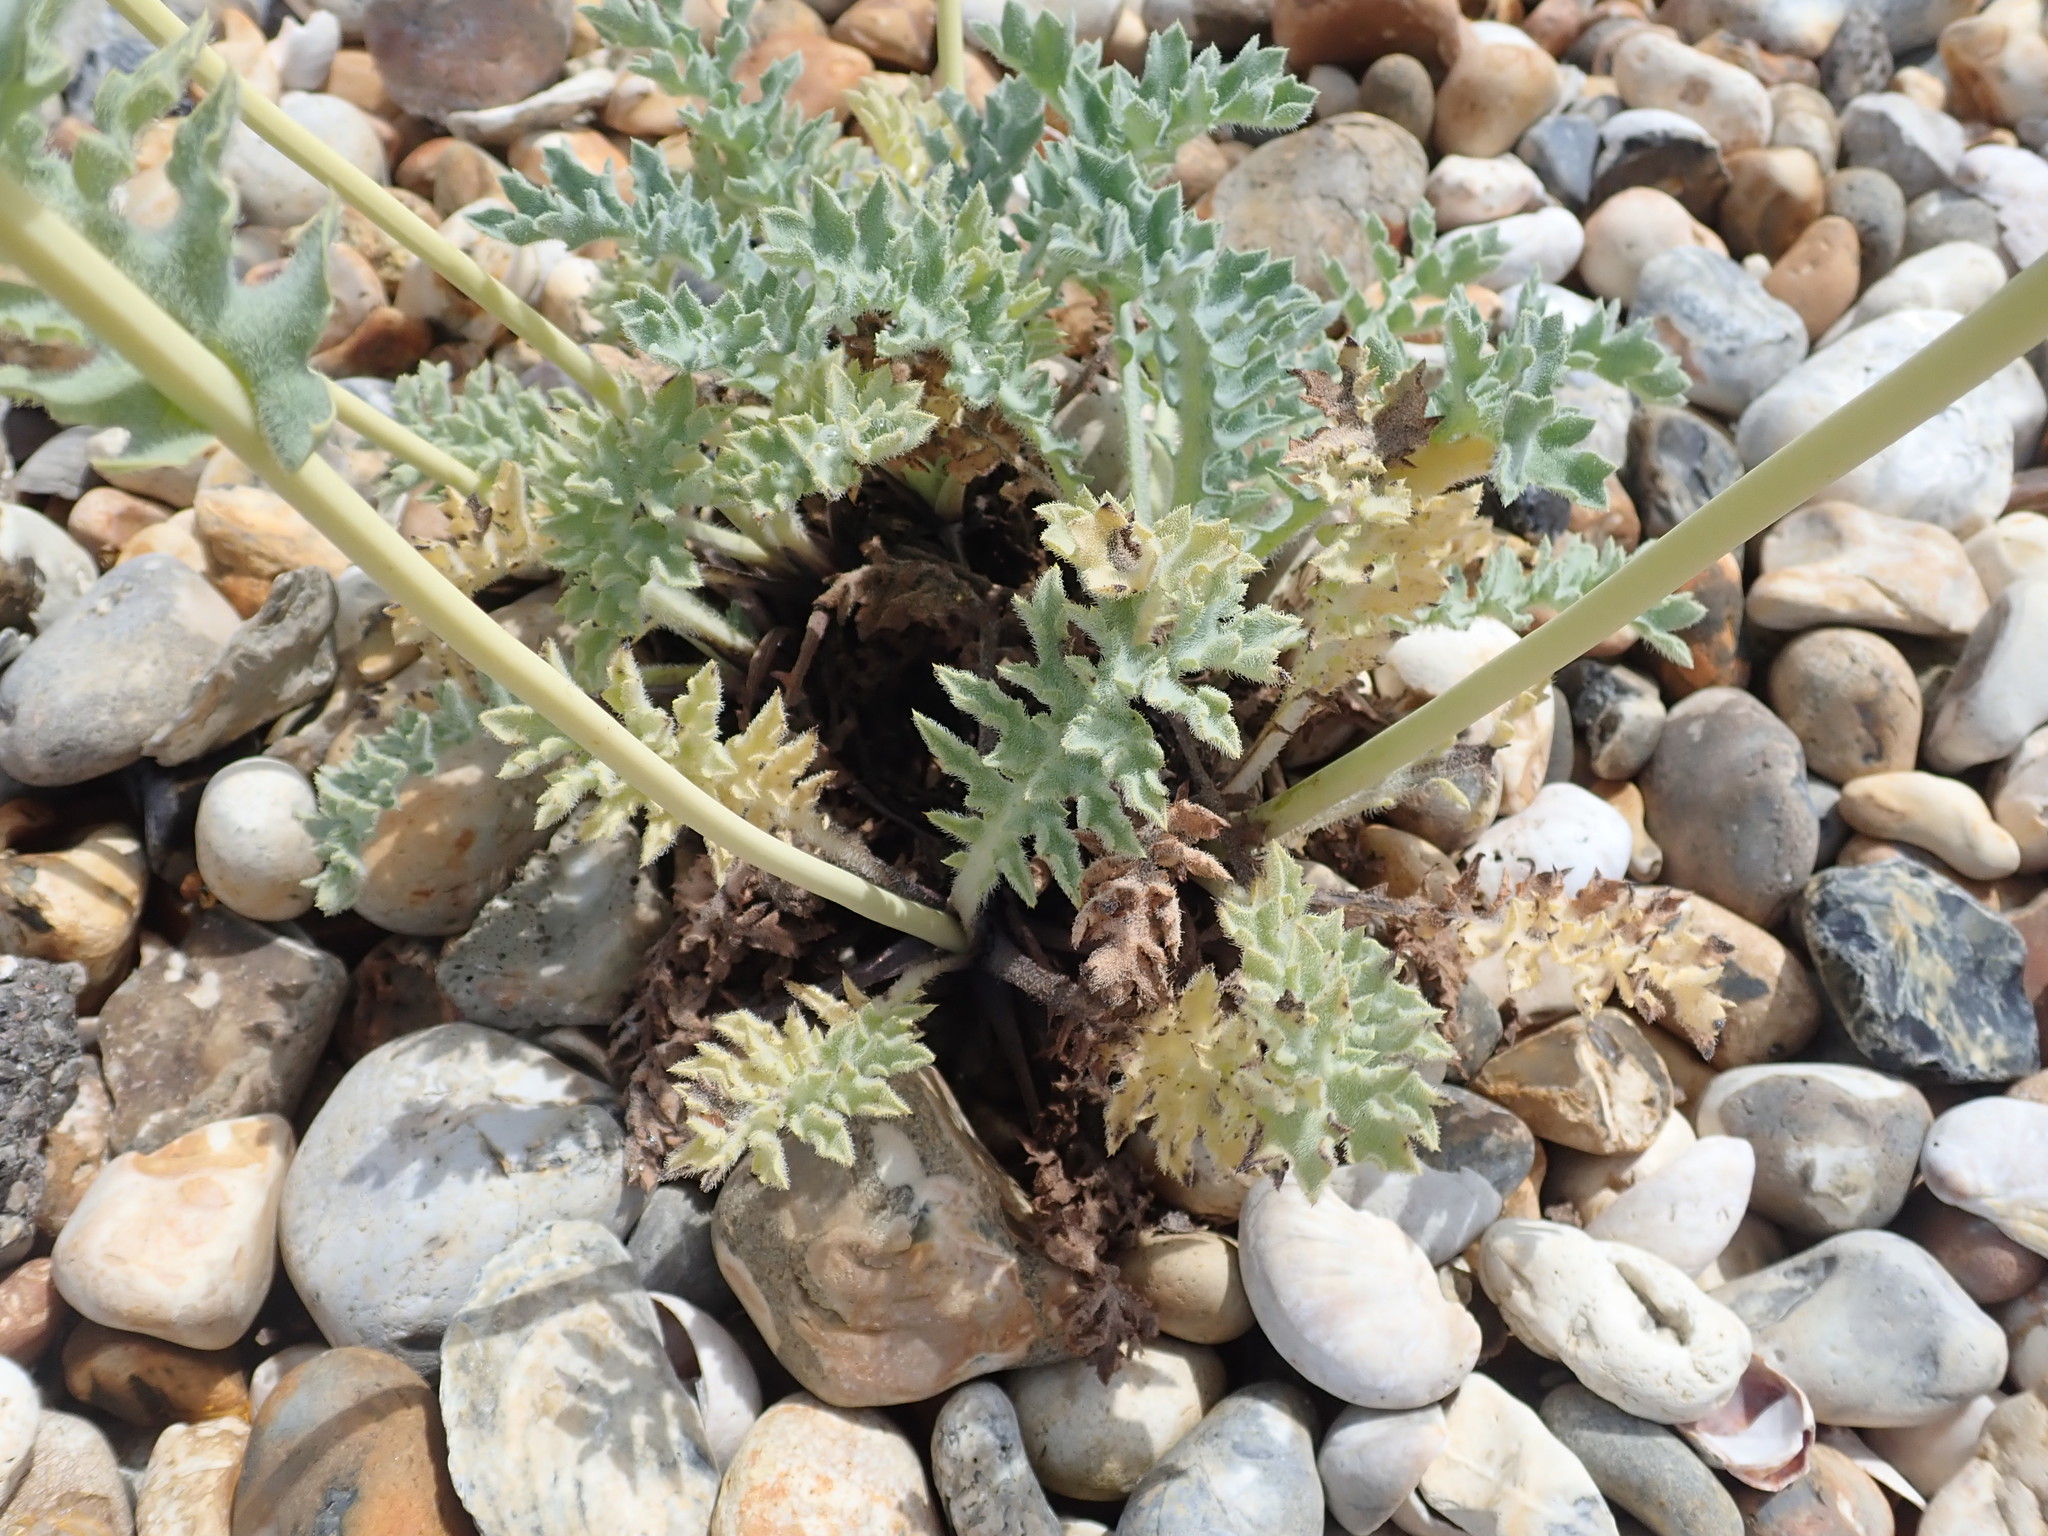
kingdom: Plantae
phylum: Tracheophyta
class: Magnoliopsida
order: Ranunculales
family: Papaveraceae
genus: Glaucium
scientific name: Glaucium flavum
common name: Yellow horned-poppy
